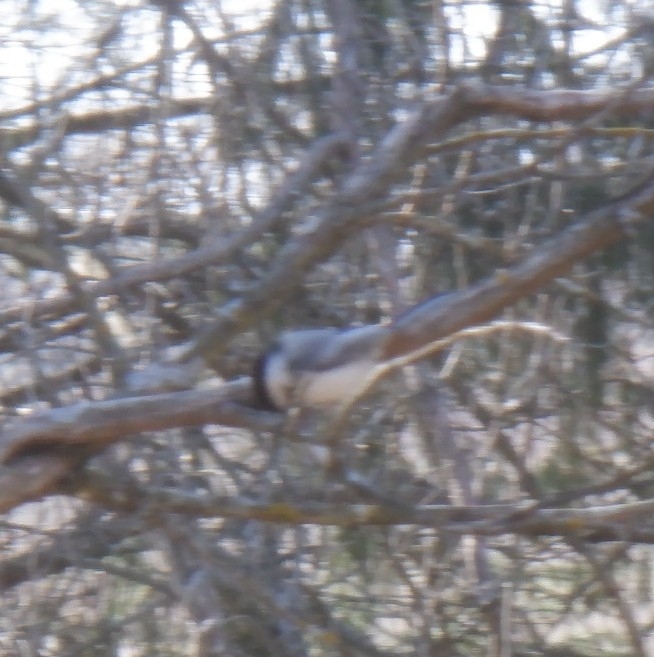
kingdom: Animalia
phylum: Chordata
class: Aves
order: Passeriformes
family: Paridae
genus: Poecile
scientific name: Poecile atricapillus
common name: Black-capped chickadee
